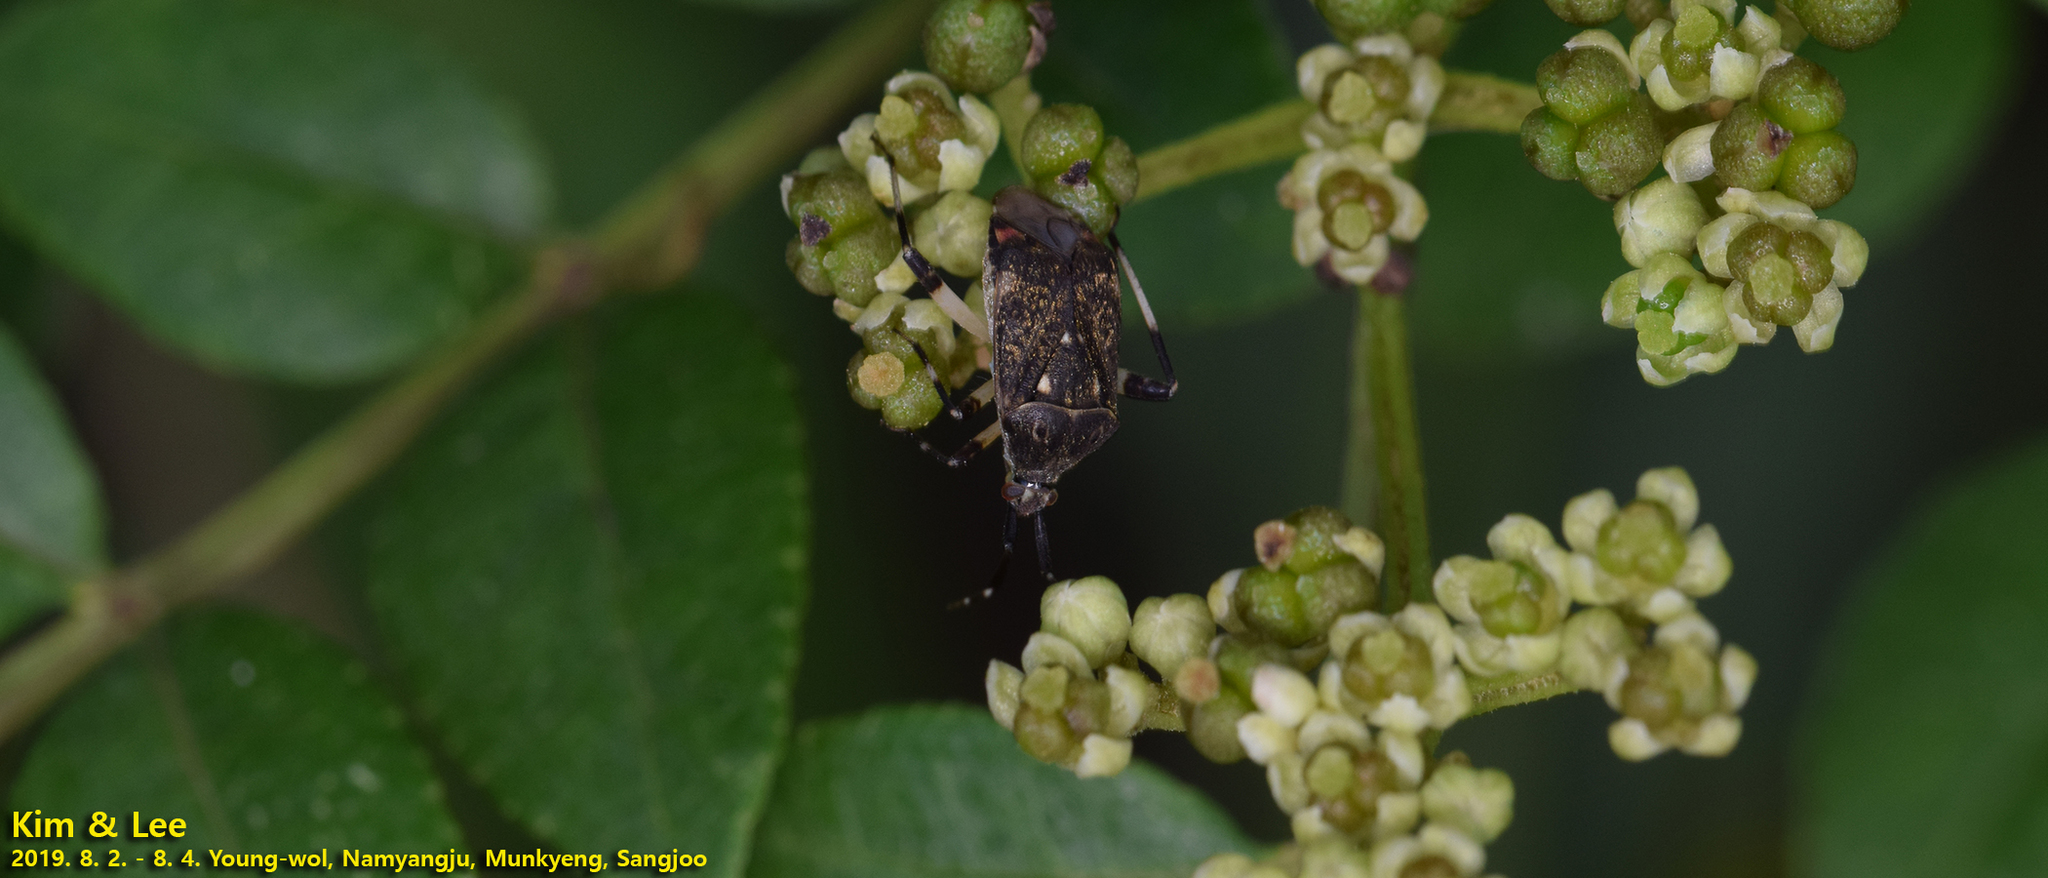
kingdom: Animalia
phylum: Arthropoda
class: Insecta
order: Hemiptera
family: Miridae
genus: Eurystylus
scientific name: Eurystylus coelestialium
